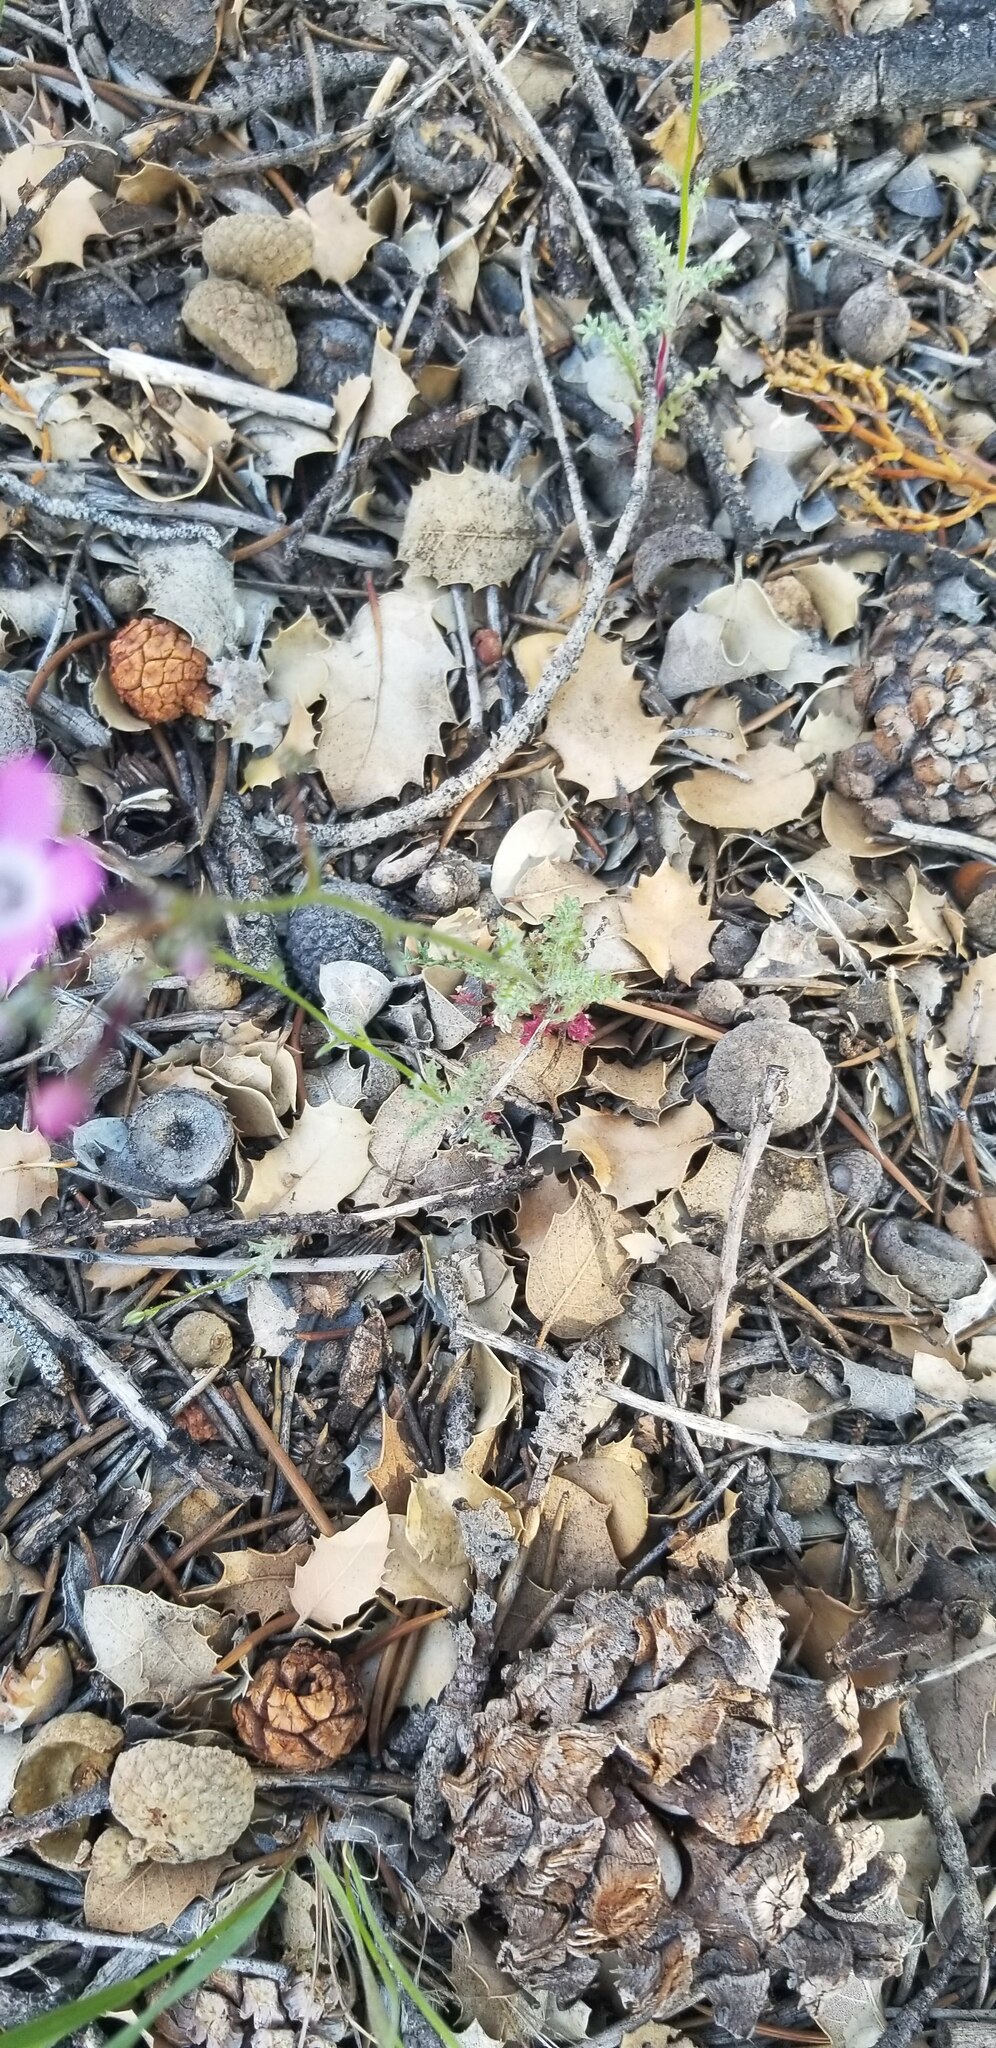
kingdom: Plantae
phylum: Tracheophyta
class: Magnoliopsida
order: Ericales
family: Polemoniaceae
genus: Gilia
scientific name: Gilia leptantha
